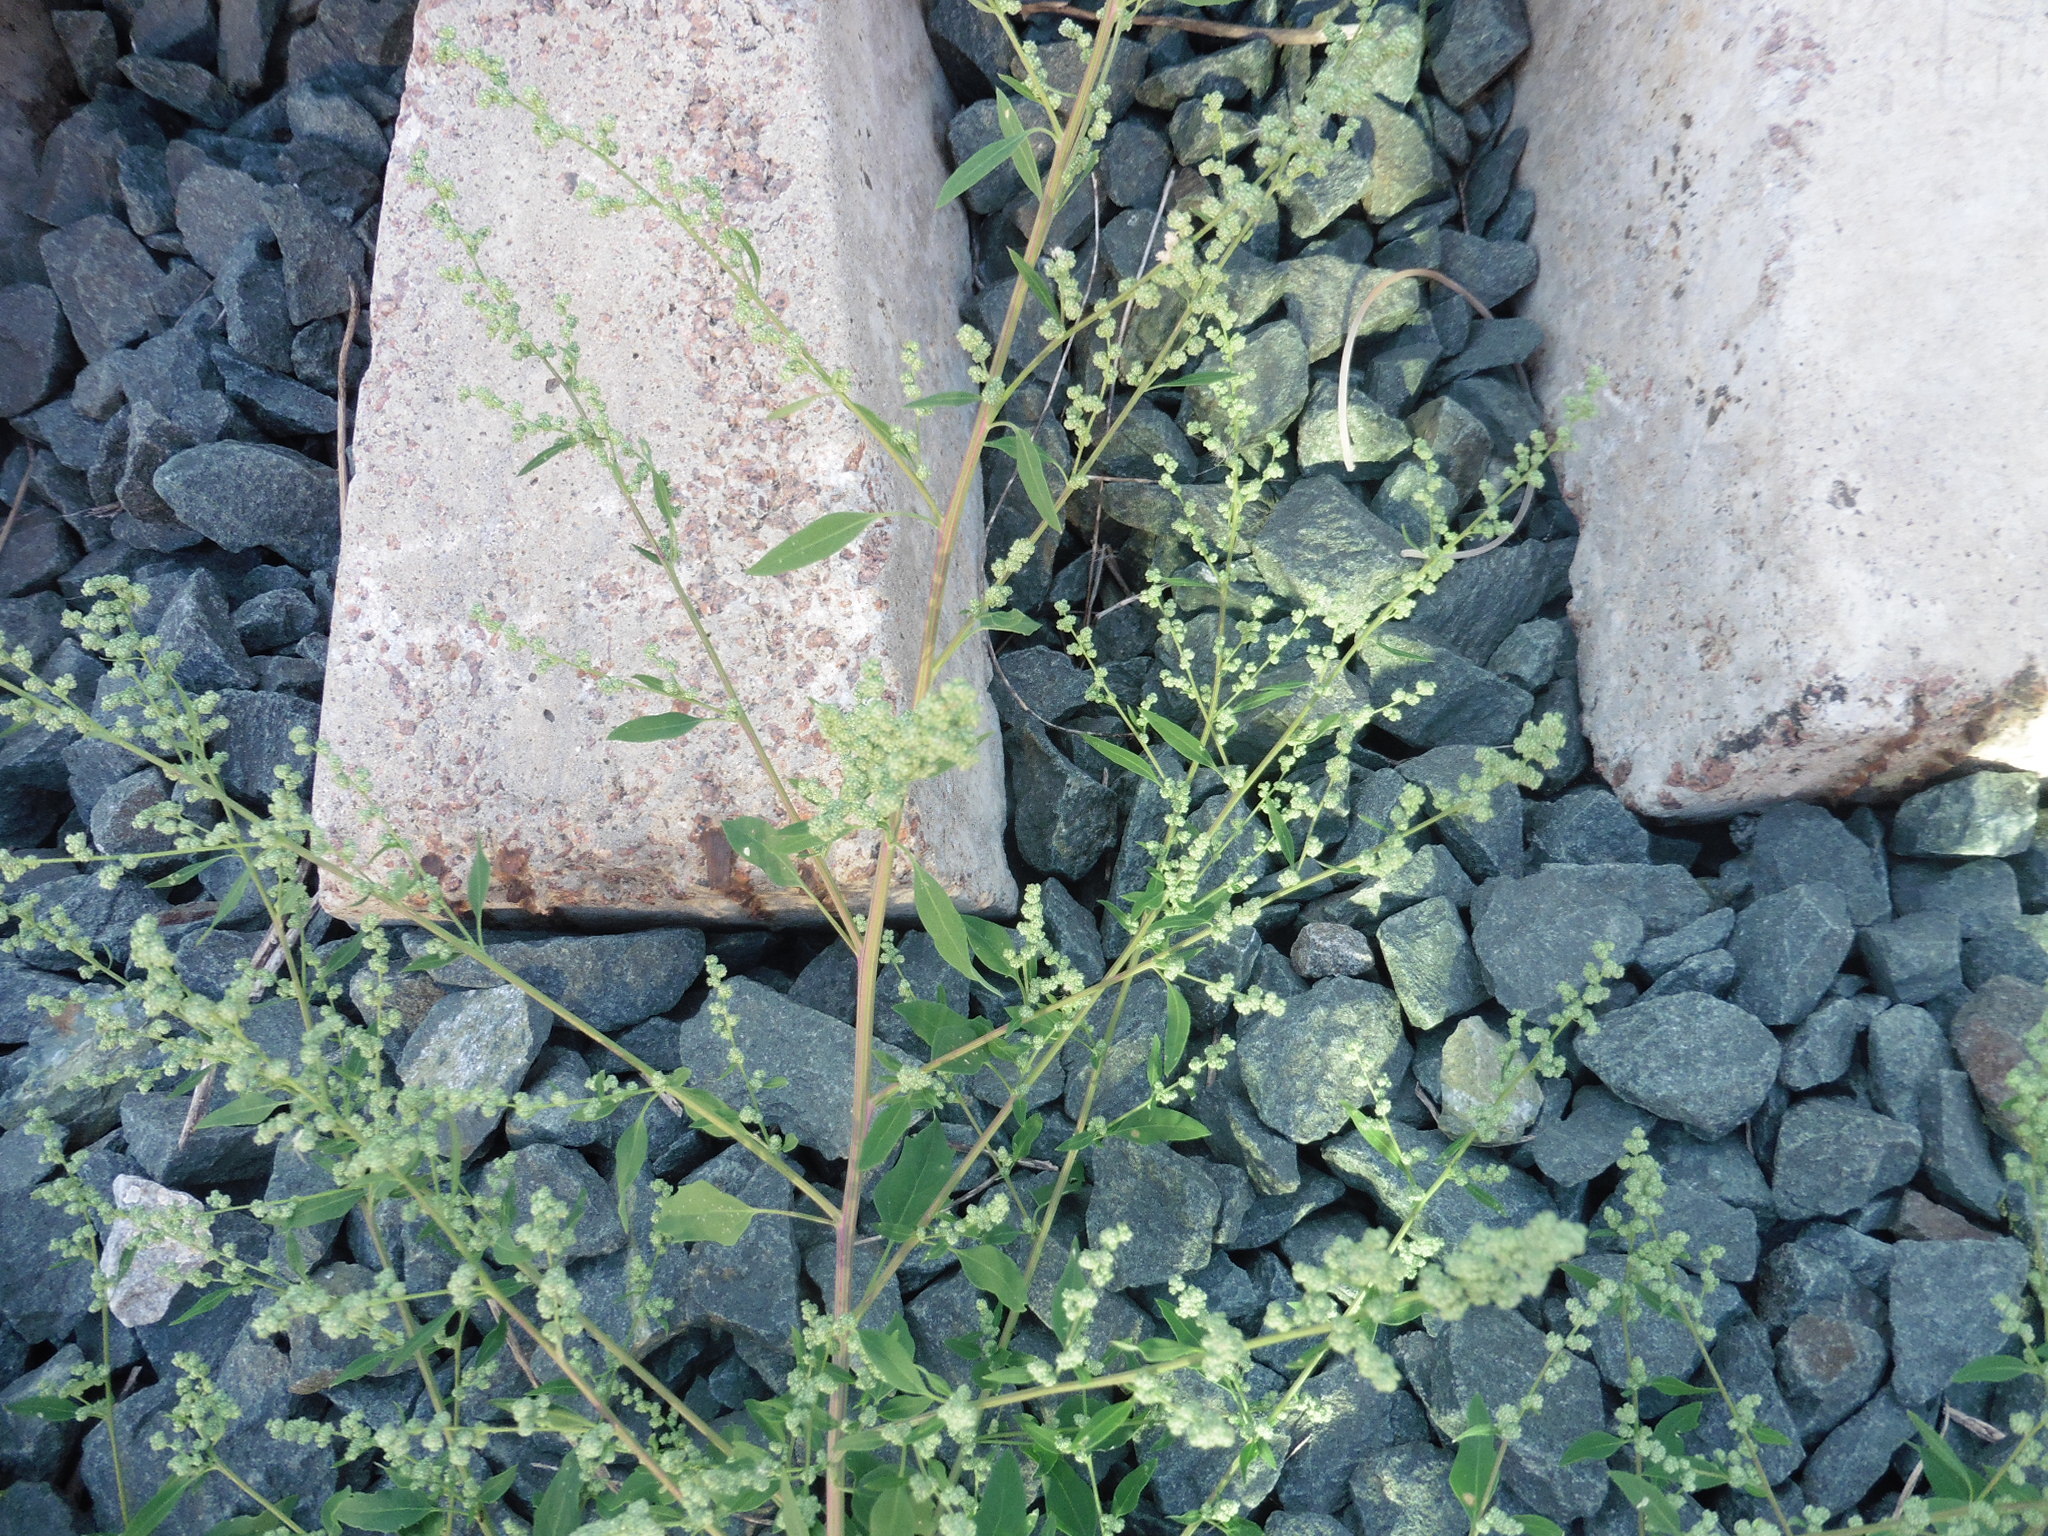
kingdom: Plantae
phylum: Tracheophyta
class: Magnoliopsida
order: Caryophyllales
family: Amaranthaceae
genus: Chenopodium
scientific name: Chenopodium album
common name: Fat-hen
